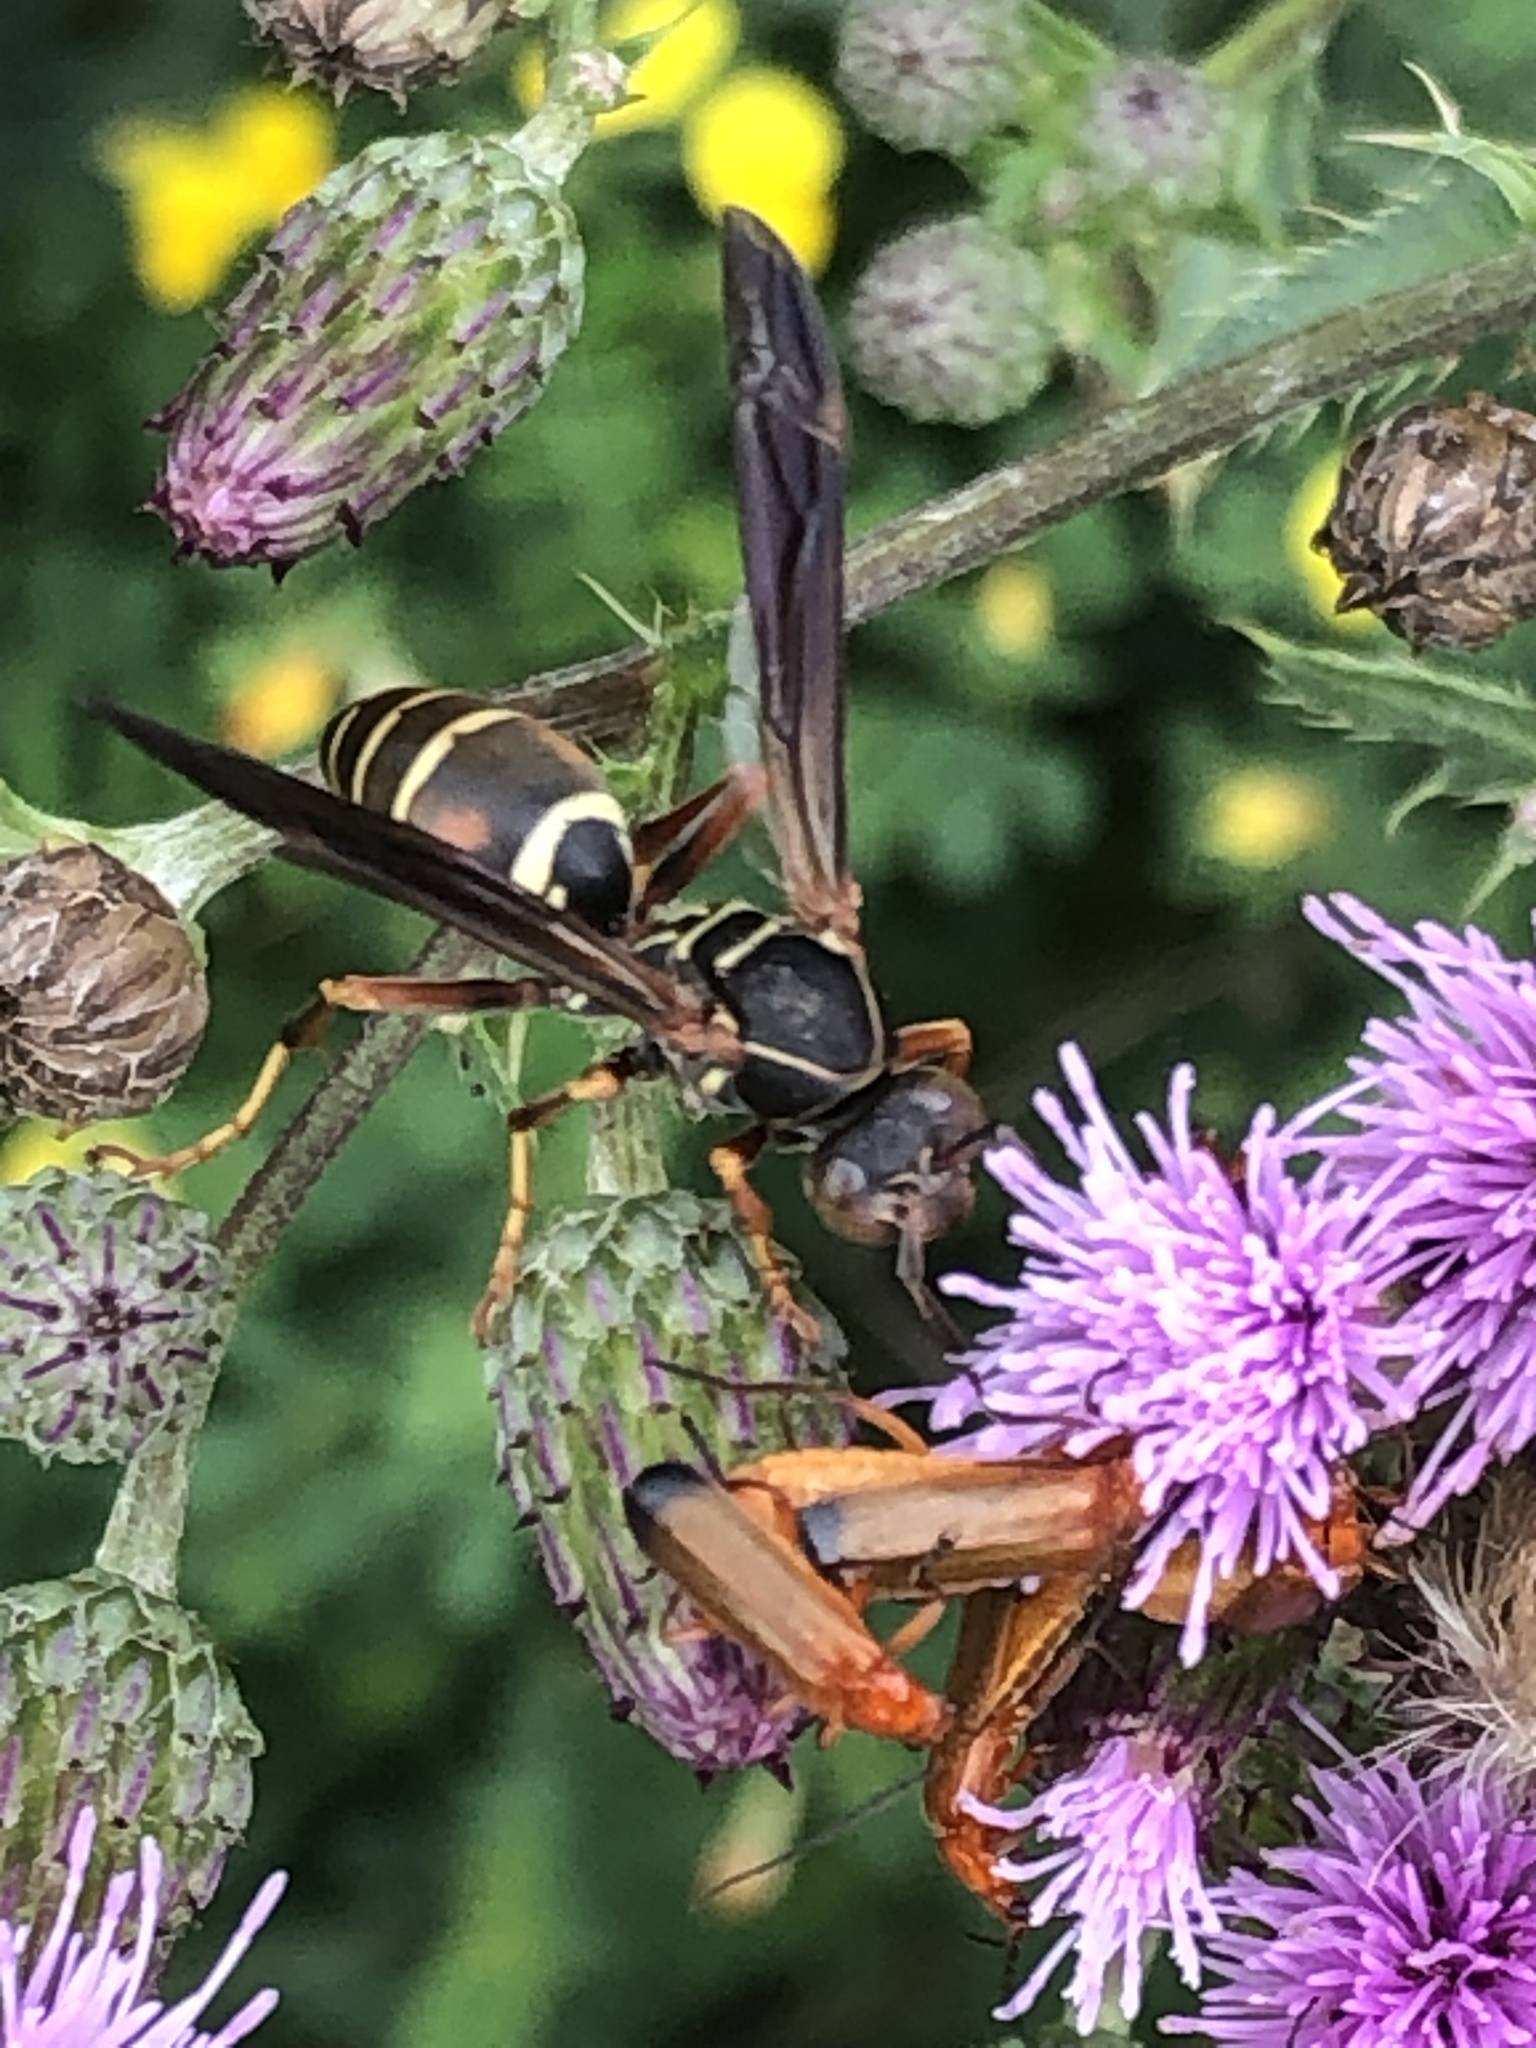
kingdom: Animalia
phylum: Arthropoda
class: Insecta
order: Hymenoptera
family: Eumenidae
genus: Polistes
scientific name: Polistes fuscatus
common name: Dark paper wasp
